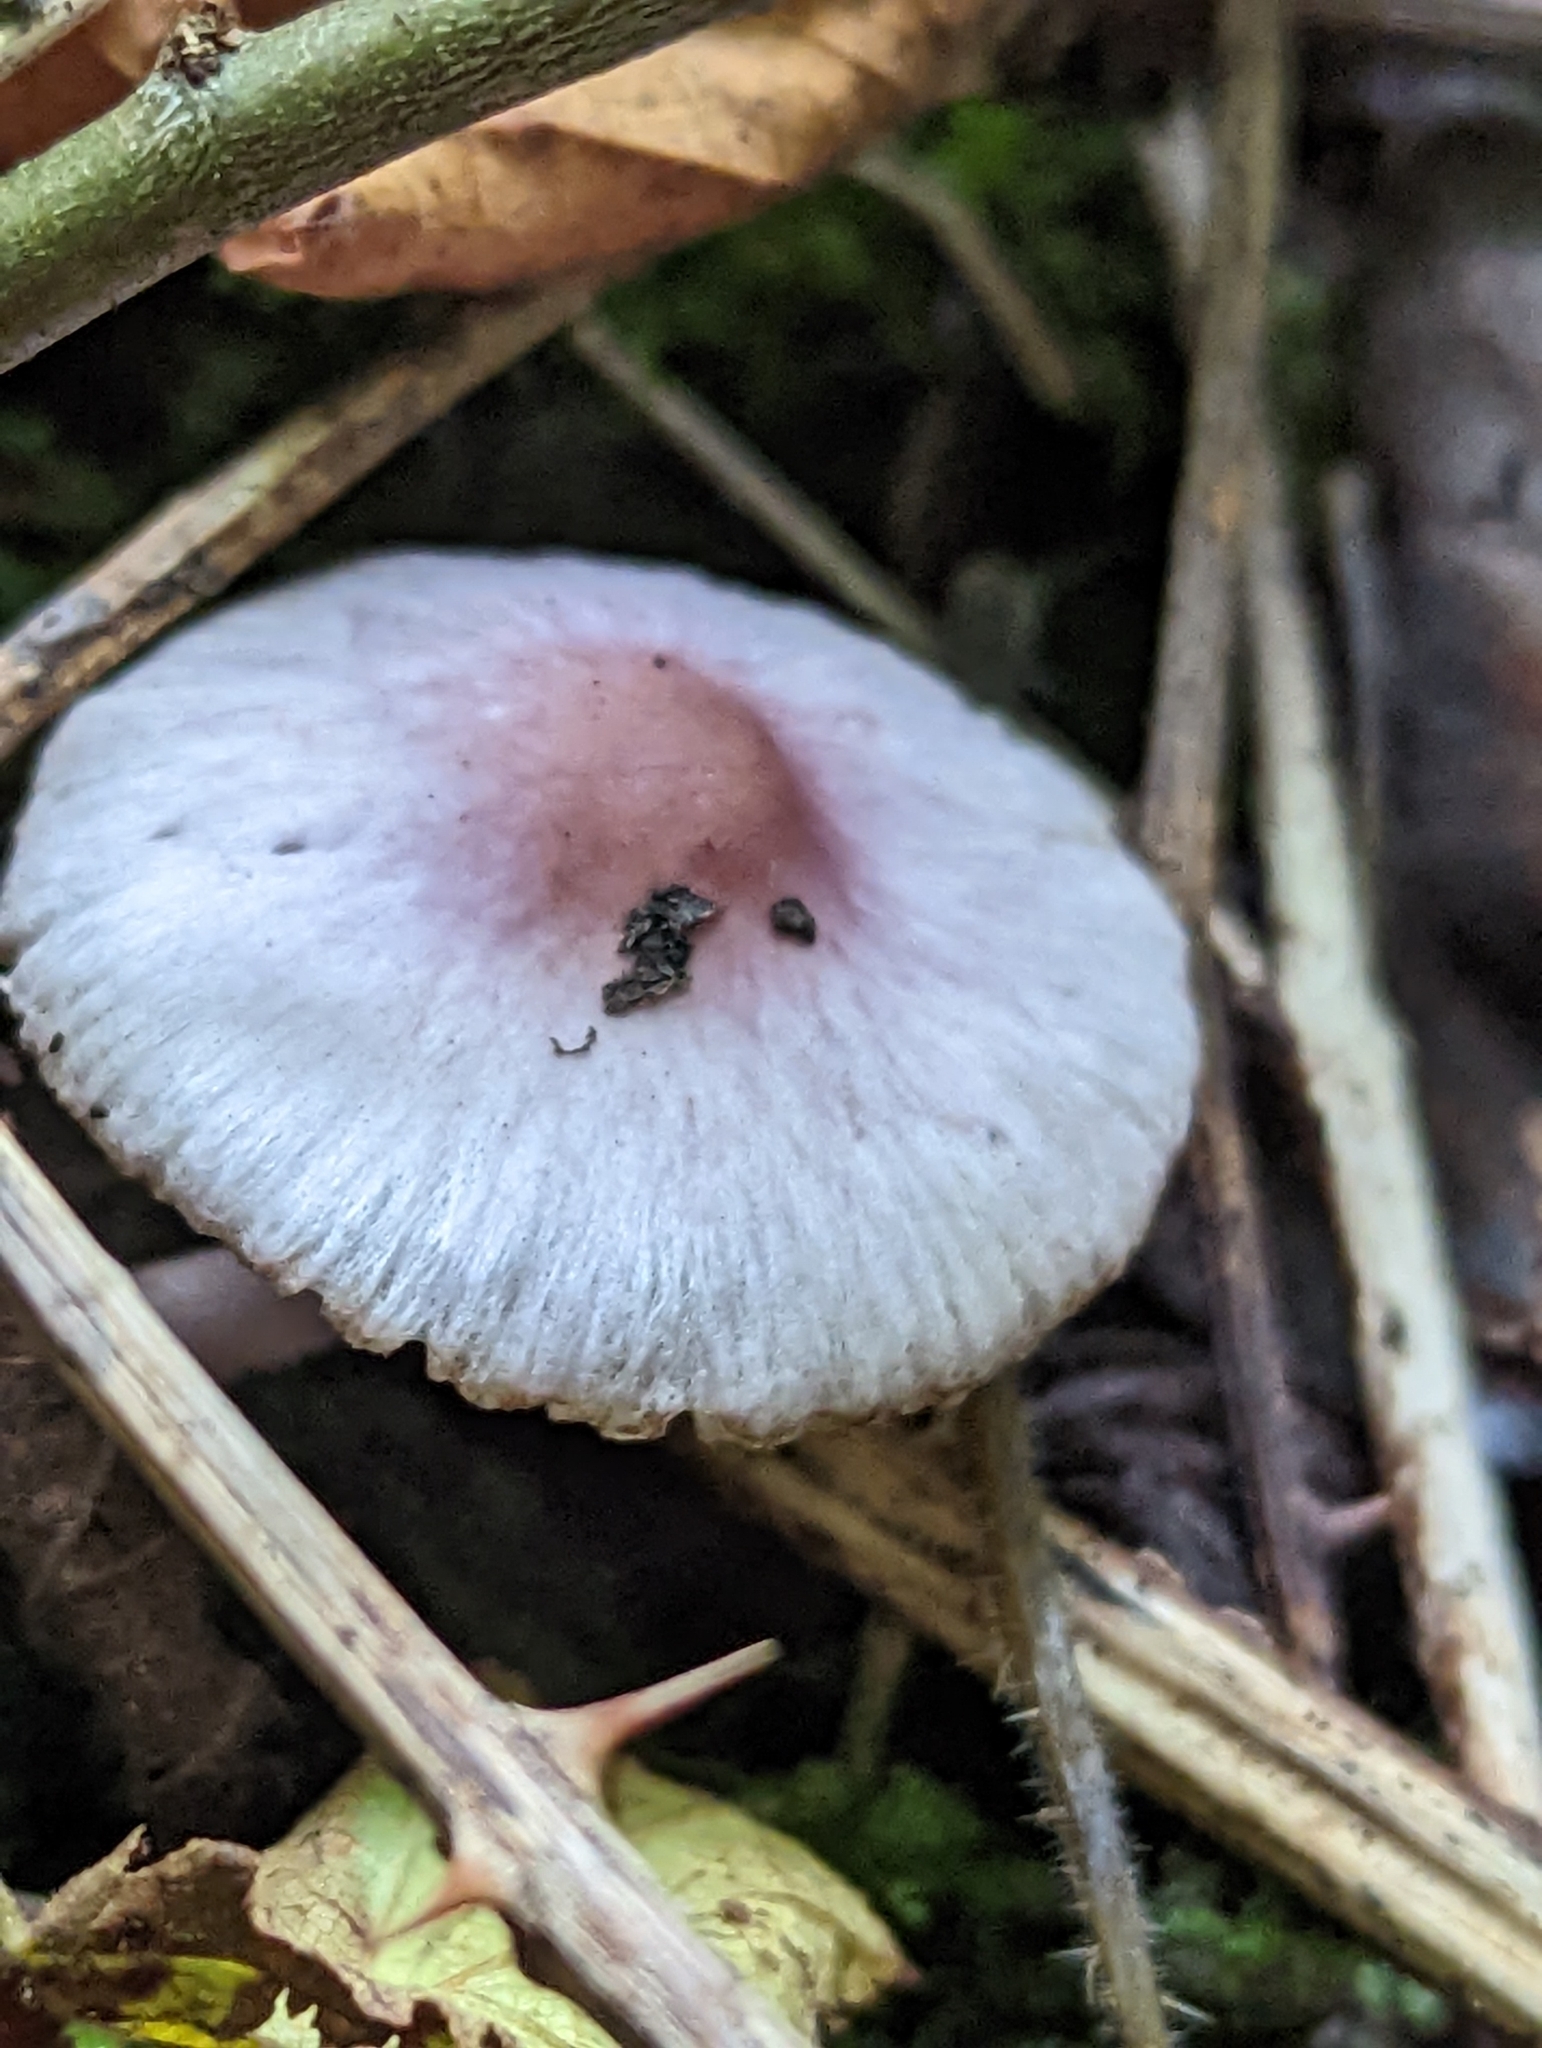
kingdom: Fungi
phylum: Basidiomycota
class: Agaricomycetes
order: Agaricales
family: Inocybaceae
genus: Inocybe
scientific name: Inocybe geophylla
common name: White fibrecap
